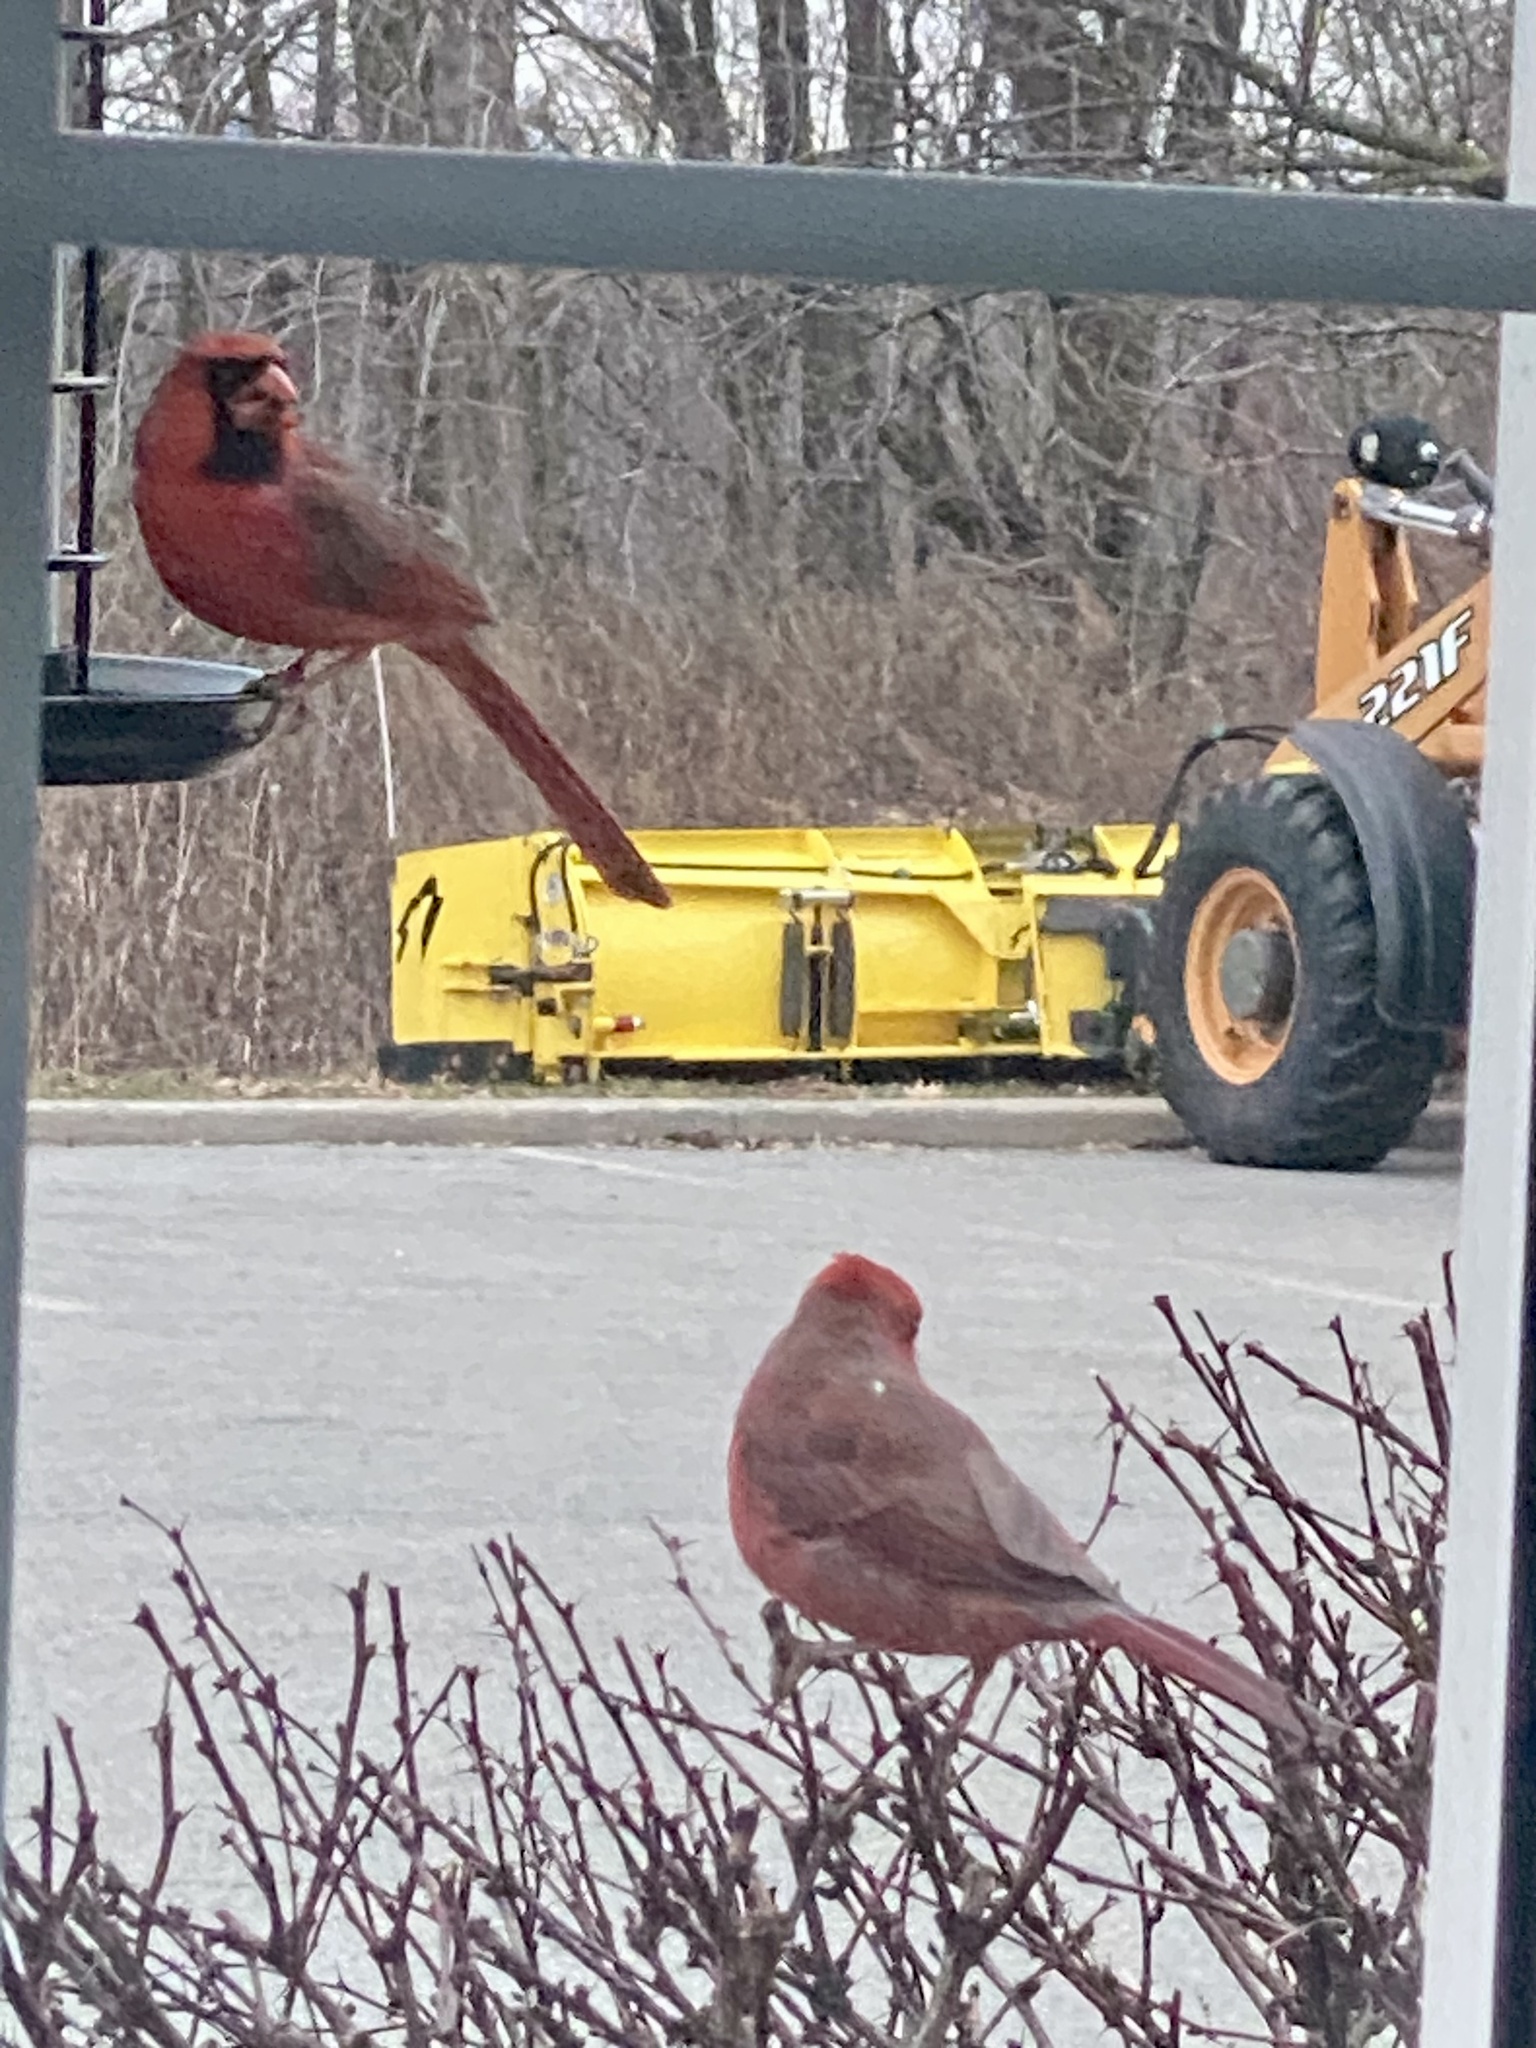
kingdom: Animalia
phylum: Chordata
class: Aves
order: Passeriformes
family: Cardinalidae
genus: Cardinalis
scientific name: Cardinalis cardinalis
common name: Northern cardinal
